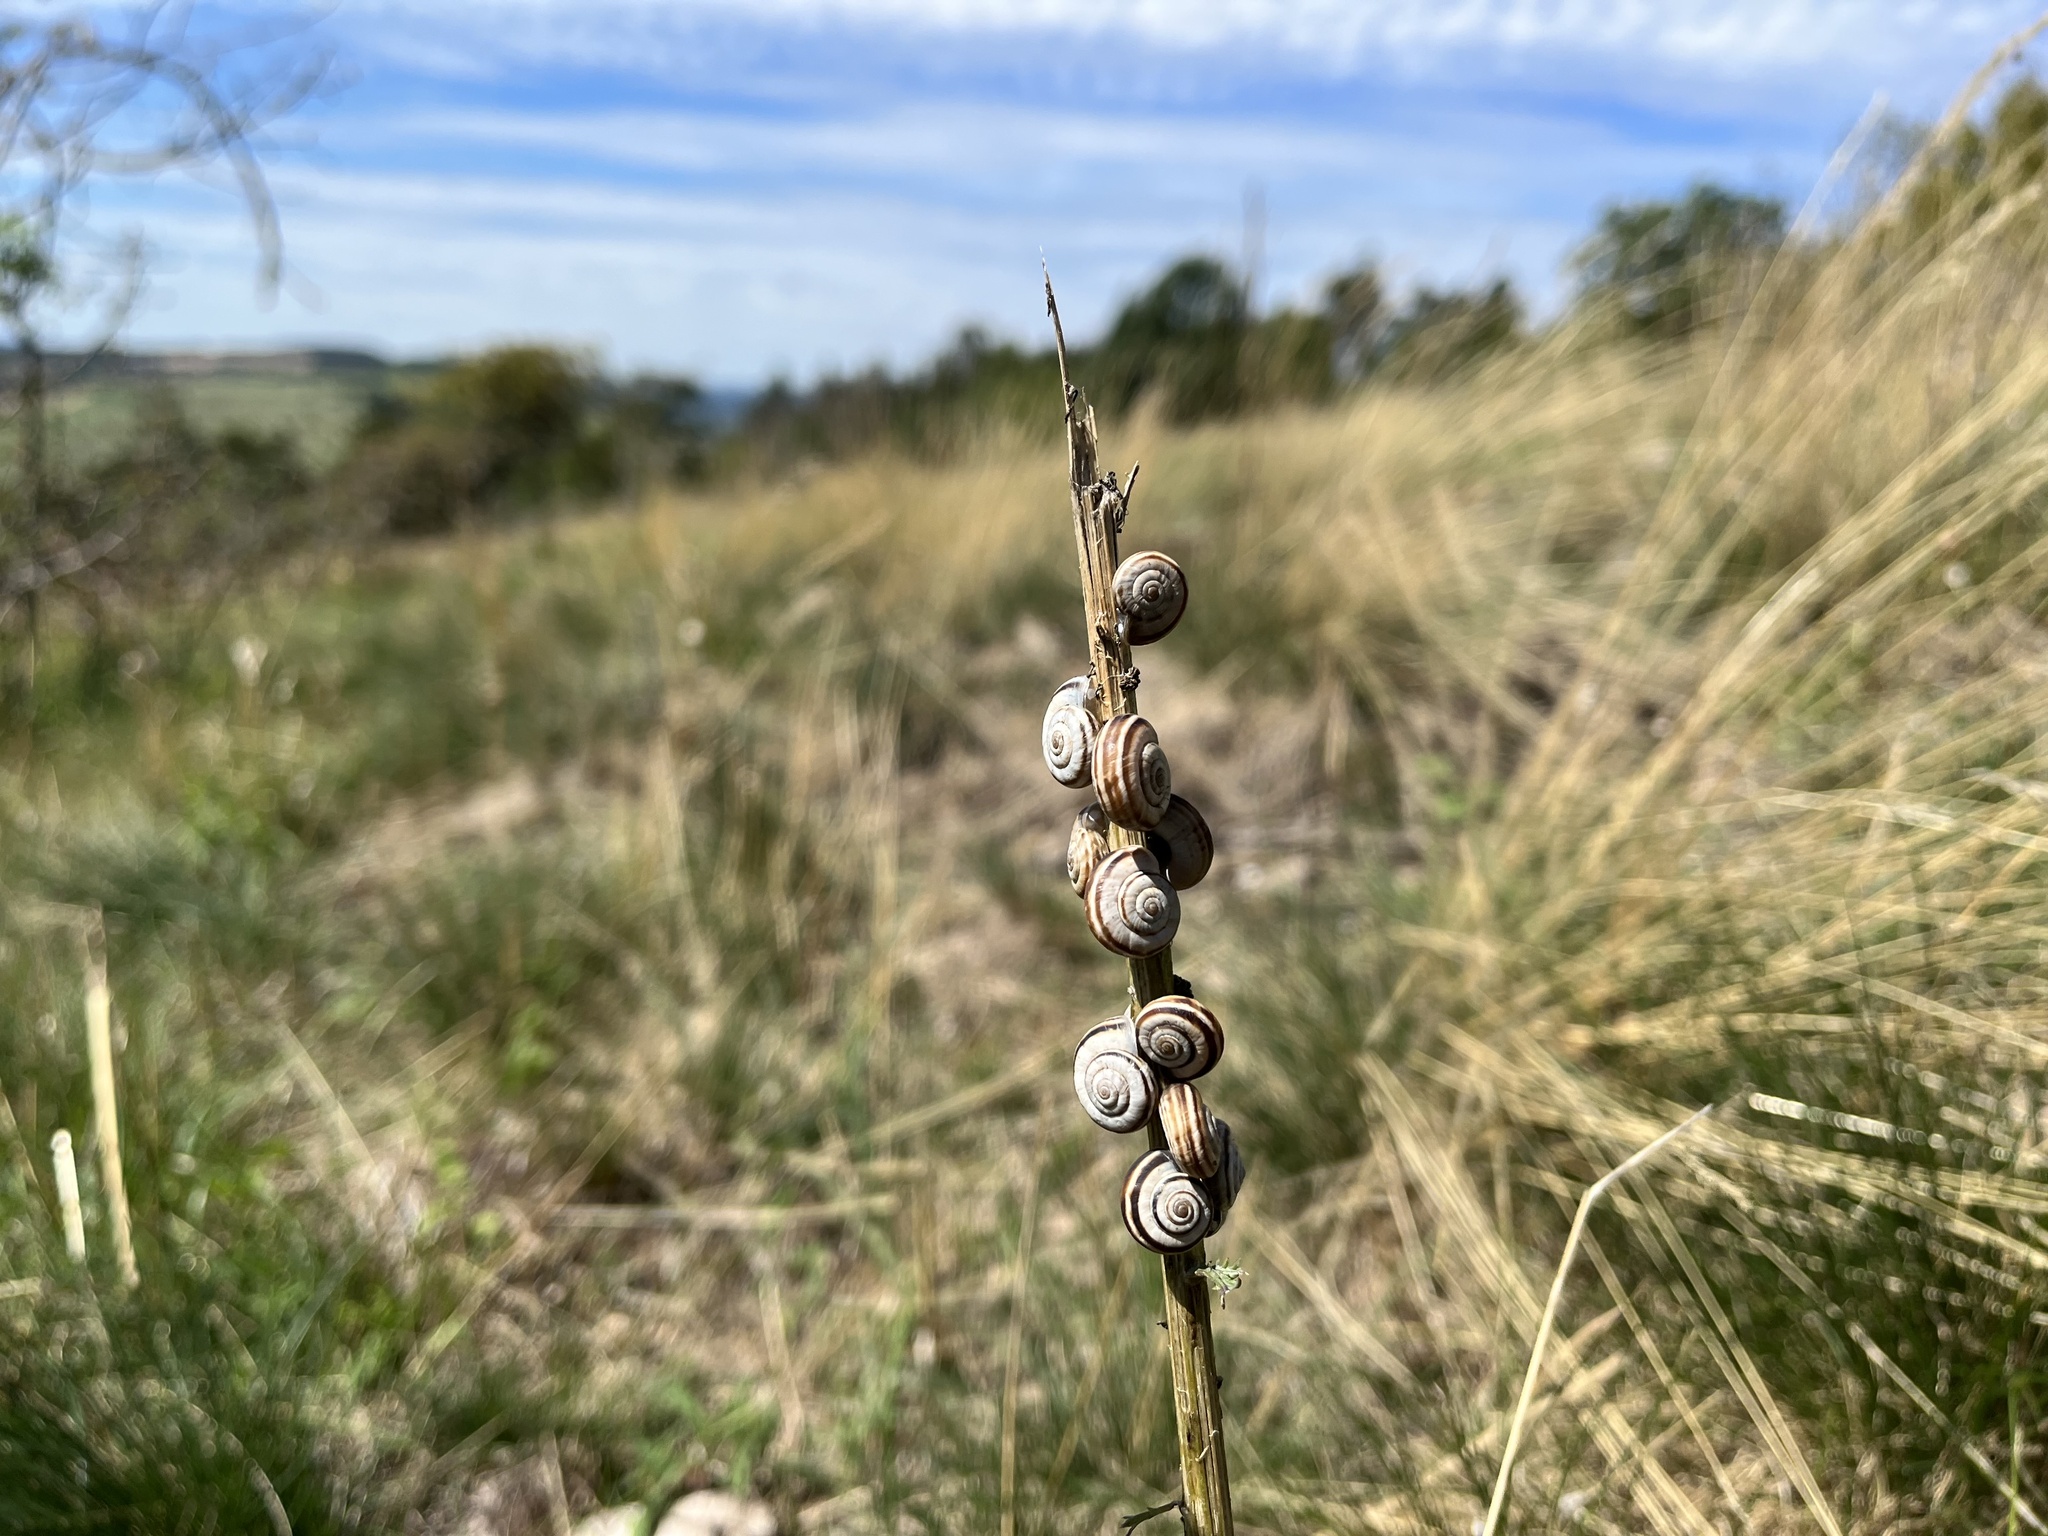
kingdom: Animalia
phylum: Mollusca
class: Gastropoda
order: Stylommatophora
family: Geomitridae
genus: Xerolenta
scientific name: Xerolenta obvia
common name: White heath snail
